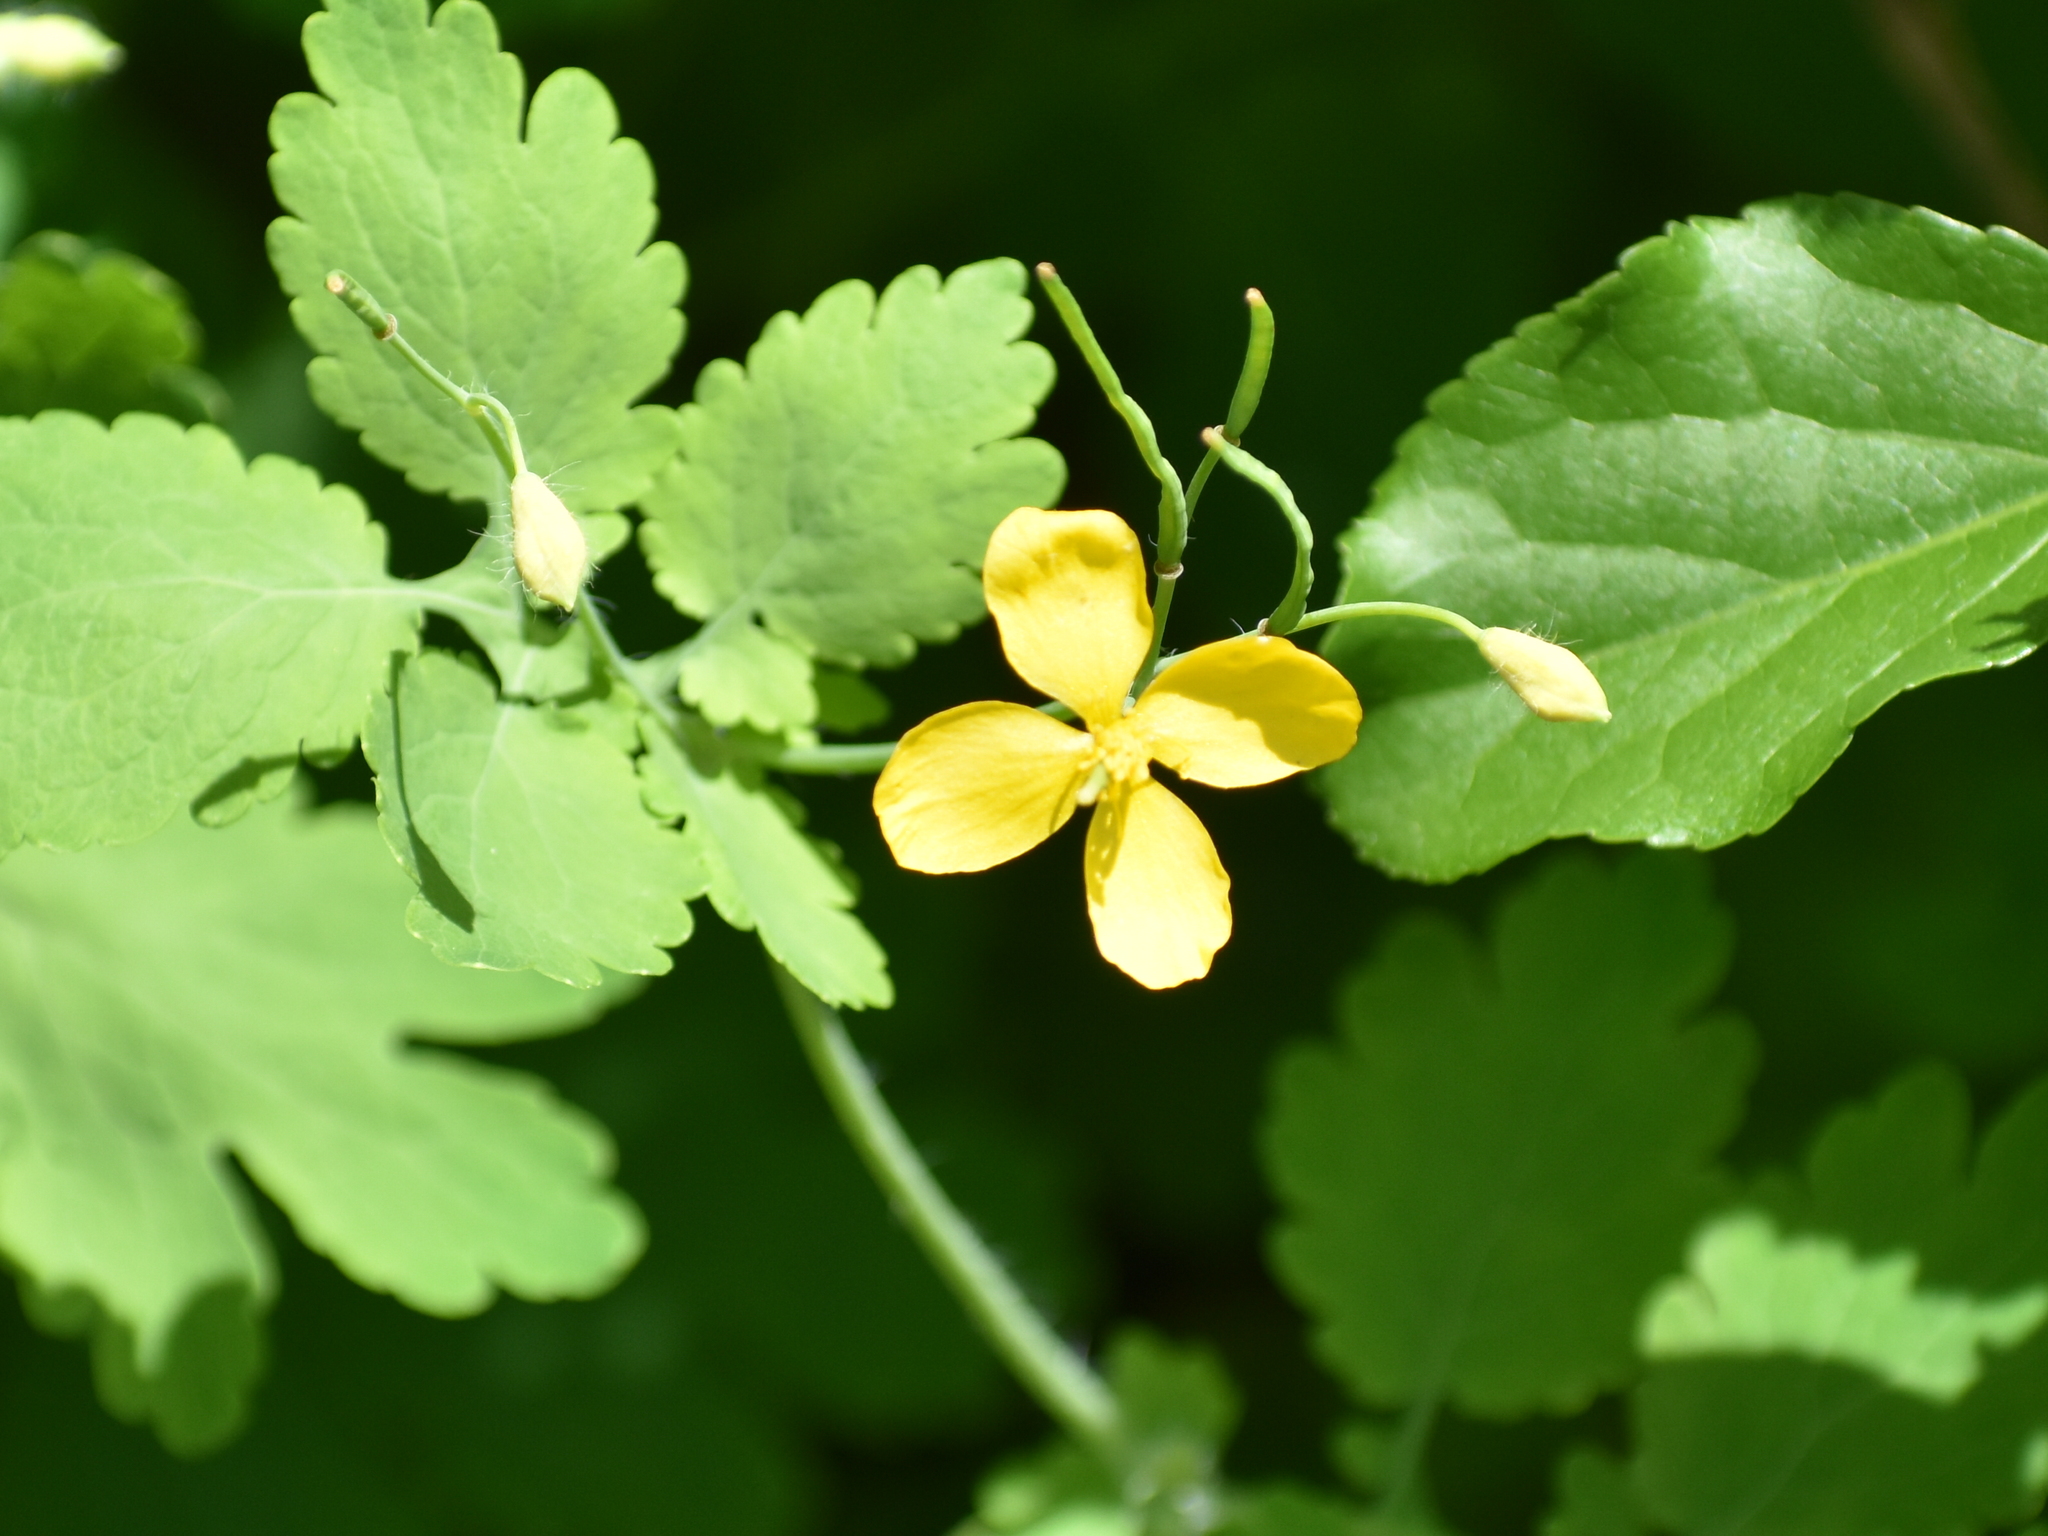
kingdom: Plantae
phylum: Tracheophyta
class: Magnoliopsida
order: Ranunculales
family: Papaveraceae
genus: Chelidonium
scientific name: Chelidonium majus
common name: Greater celandine
